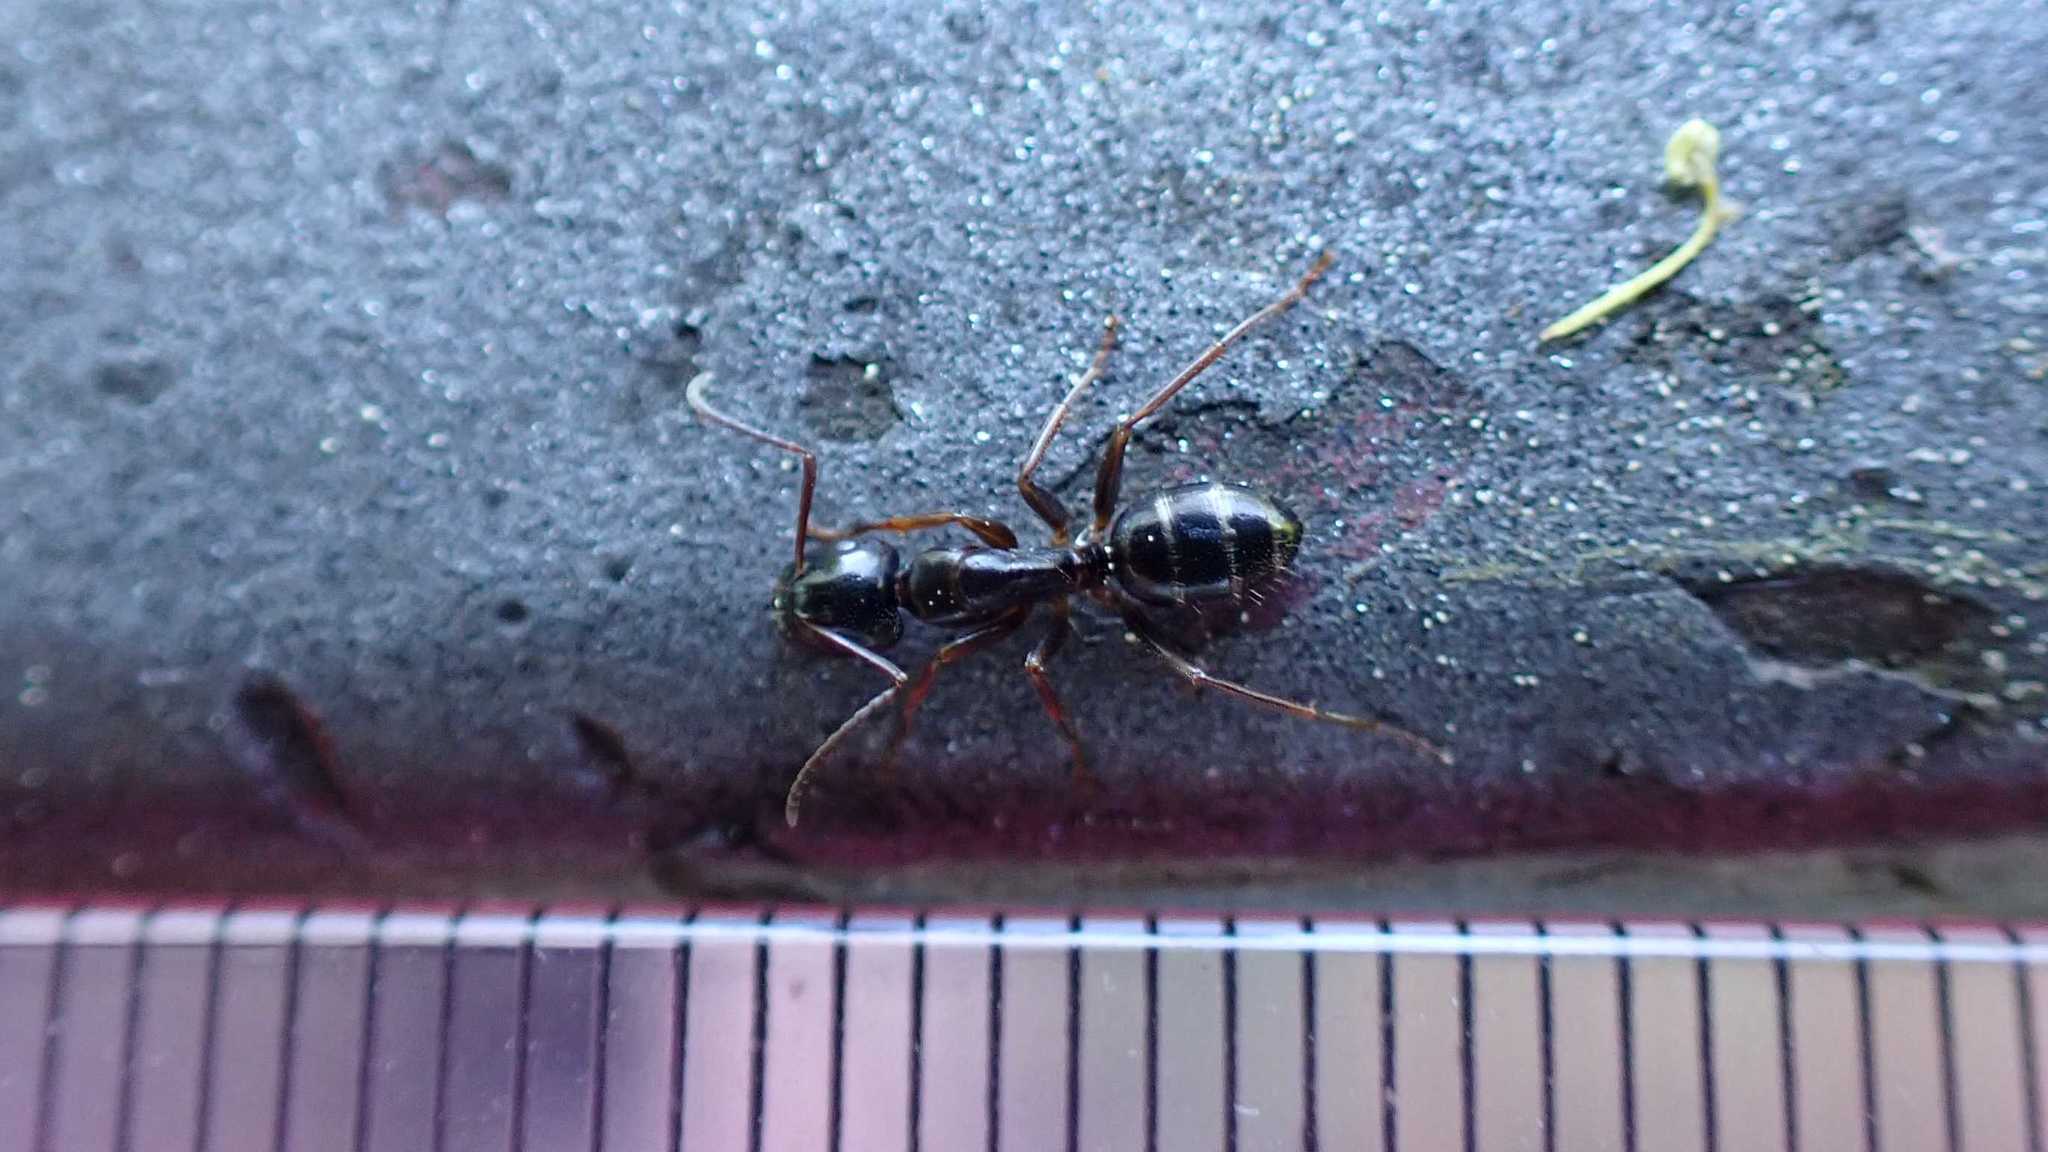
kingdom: Animalia
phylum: Arthropoda
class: Insecta
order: Hymenoptera
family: Formicidae
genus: Camponotus
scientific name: Camponotus fallax
